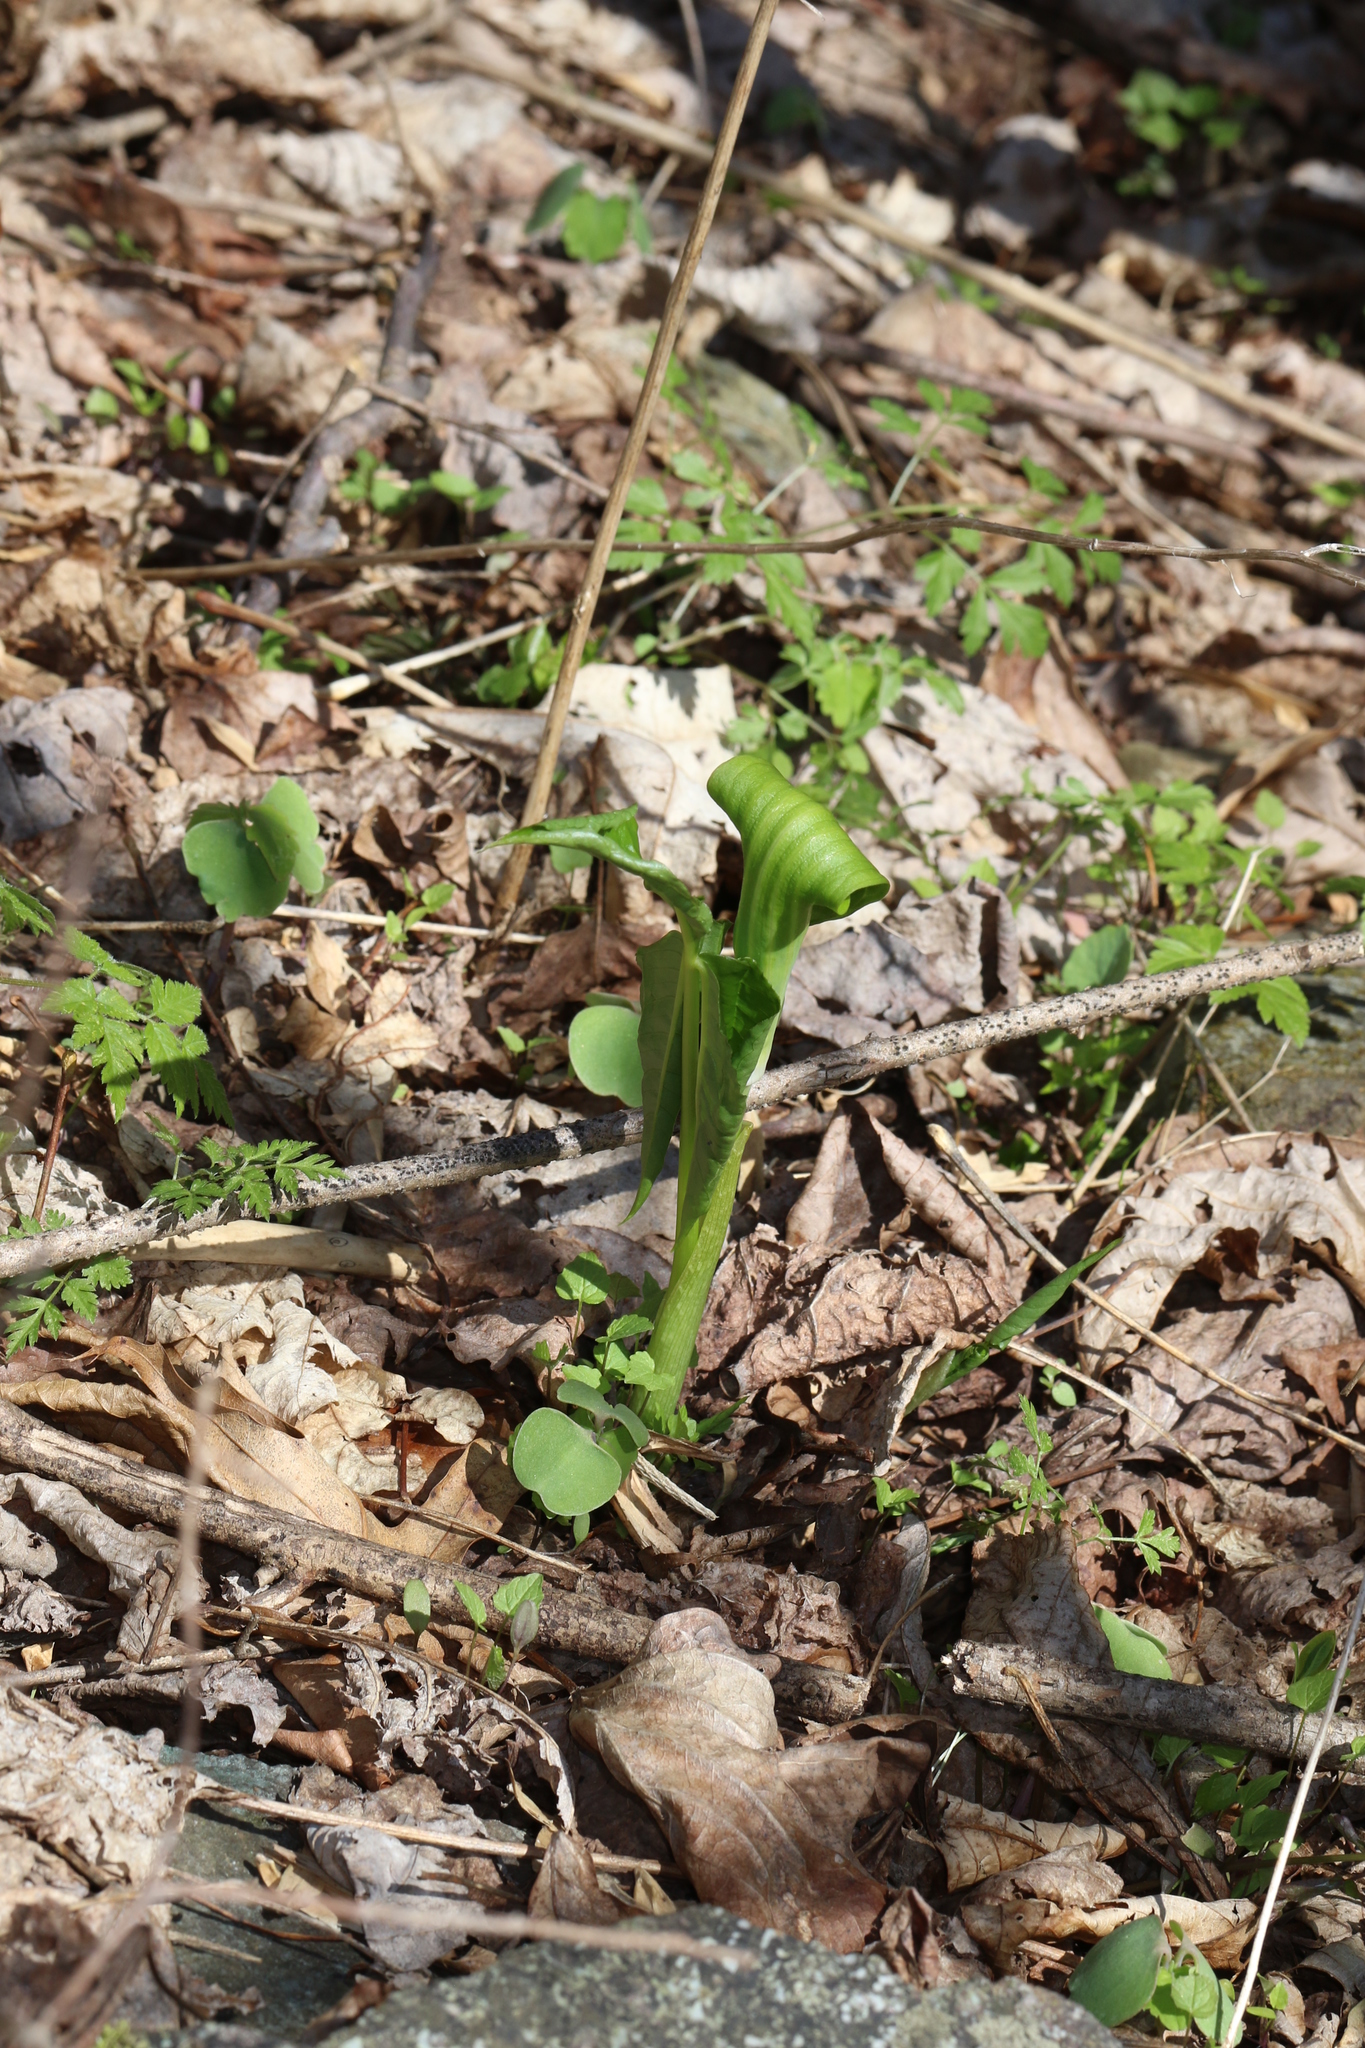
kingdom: Plantae
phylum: Tracheophyta
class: Liliopsida
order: Alismatales
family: Araceae
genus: Arisaema
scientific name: Arisaema triphyllum
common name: Jack-in-the-pulpit
